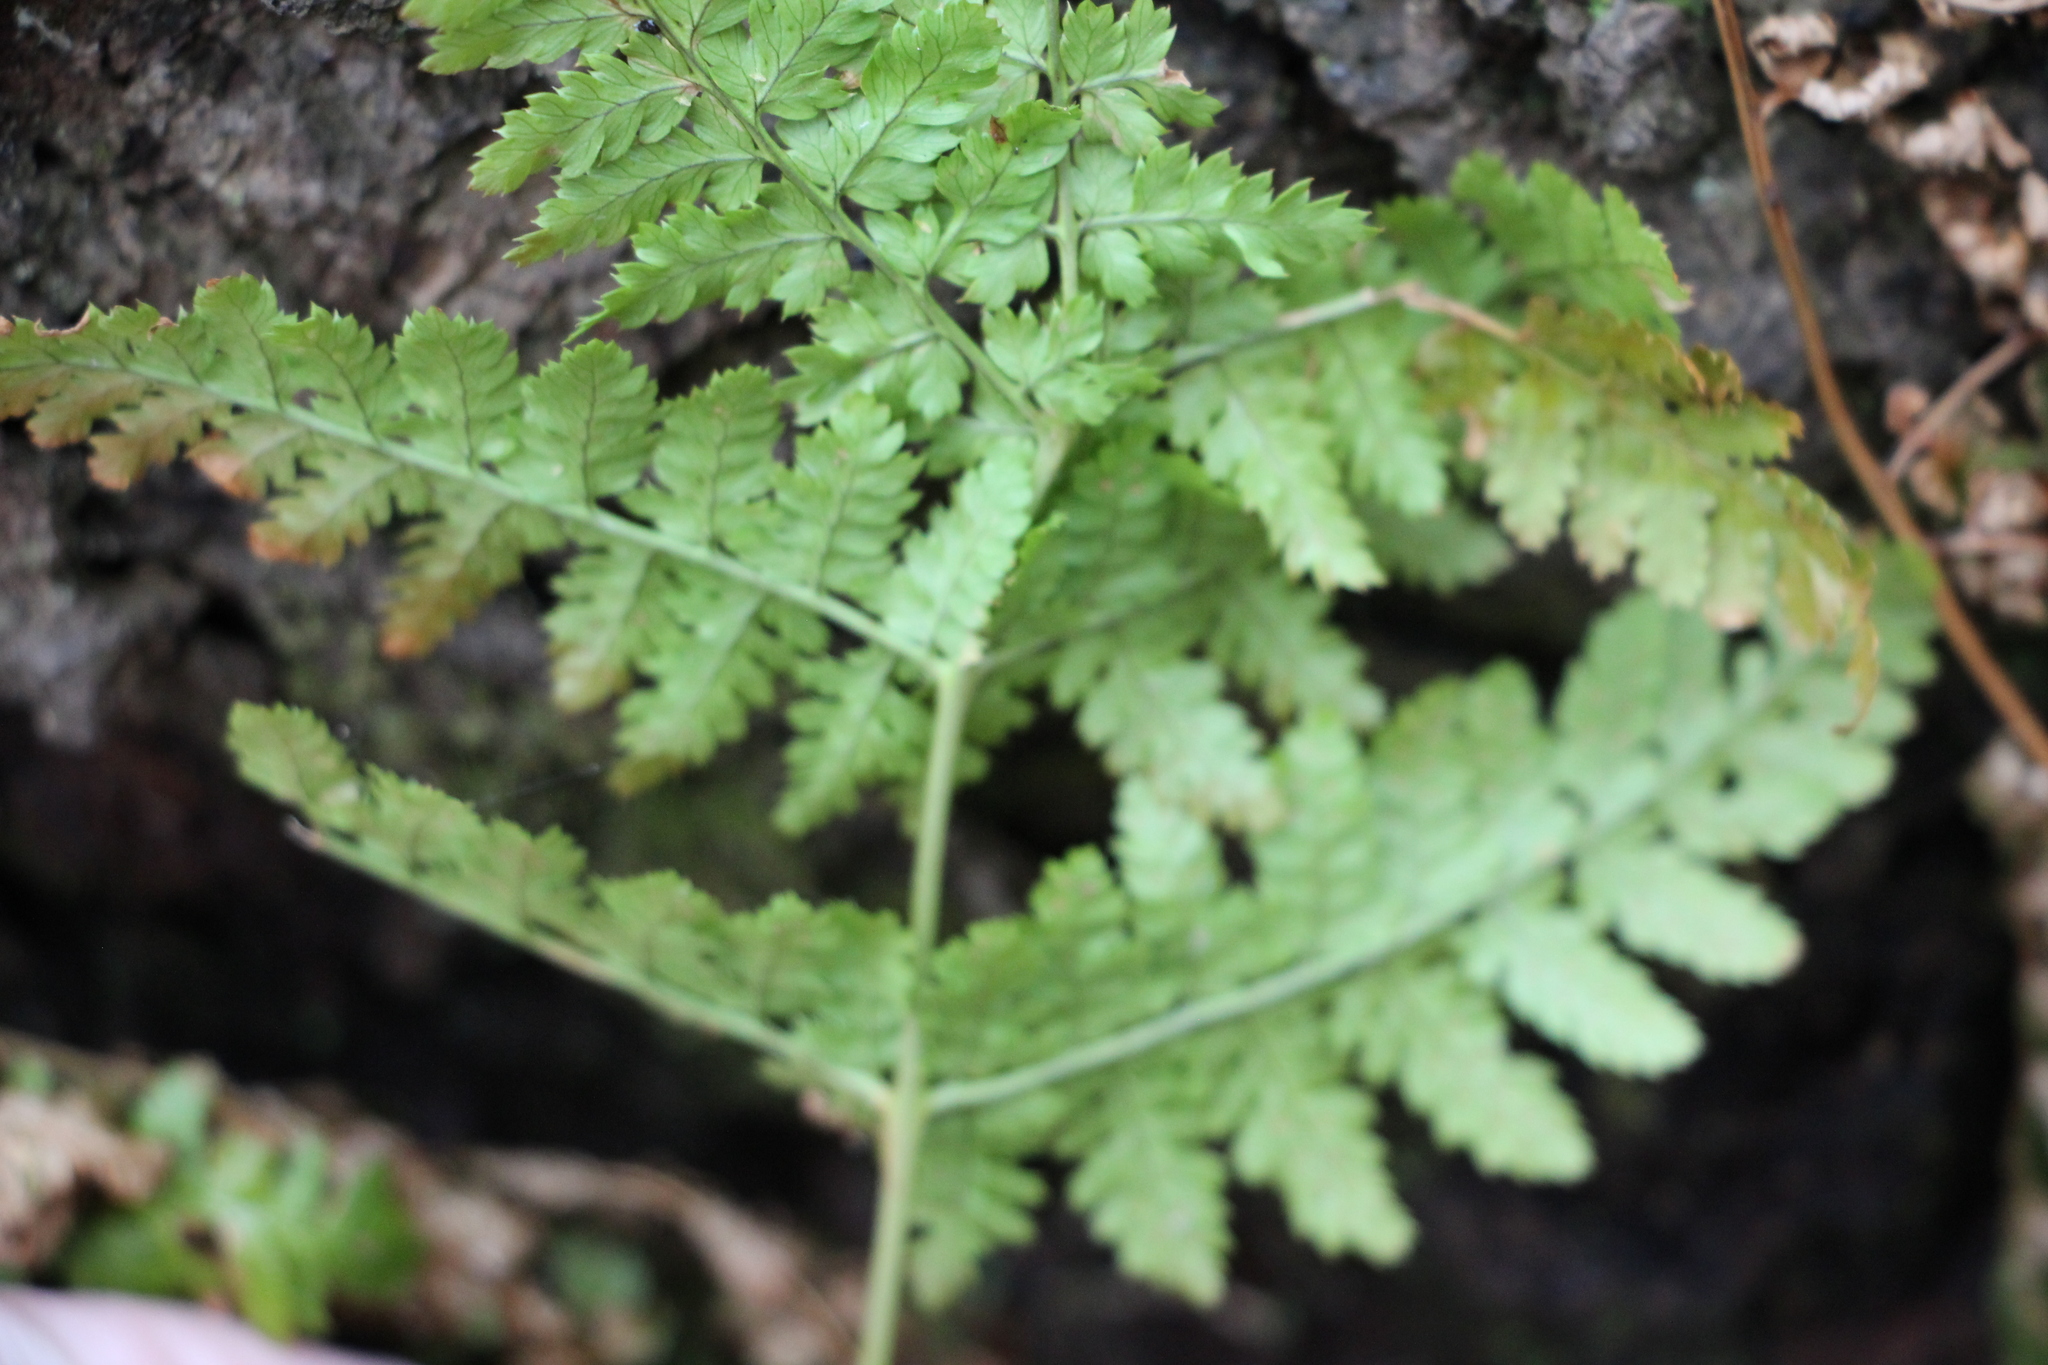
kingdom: Plantae
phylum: Tracheophyta
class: Polypodiopsida
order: Polypodiales
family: Dryopteridaceae
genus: Dryopteris
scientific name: Dryopteris intermedia
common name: Evergreen wood fern
